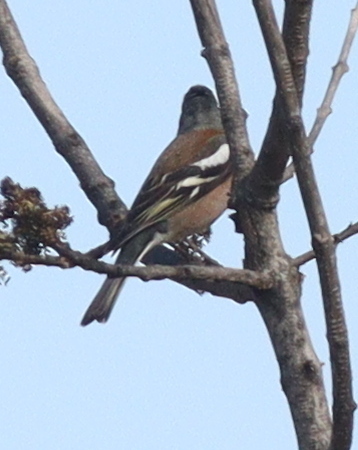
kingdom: Animalia
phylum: Chordata
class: Aves
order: Passeriformes
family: Fringillidae
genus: Fringilla
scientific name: Fringilla coelebs
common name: Common chaffinch
